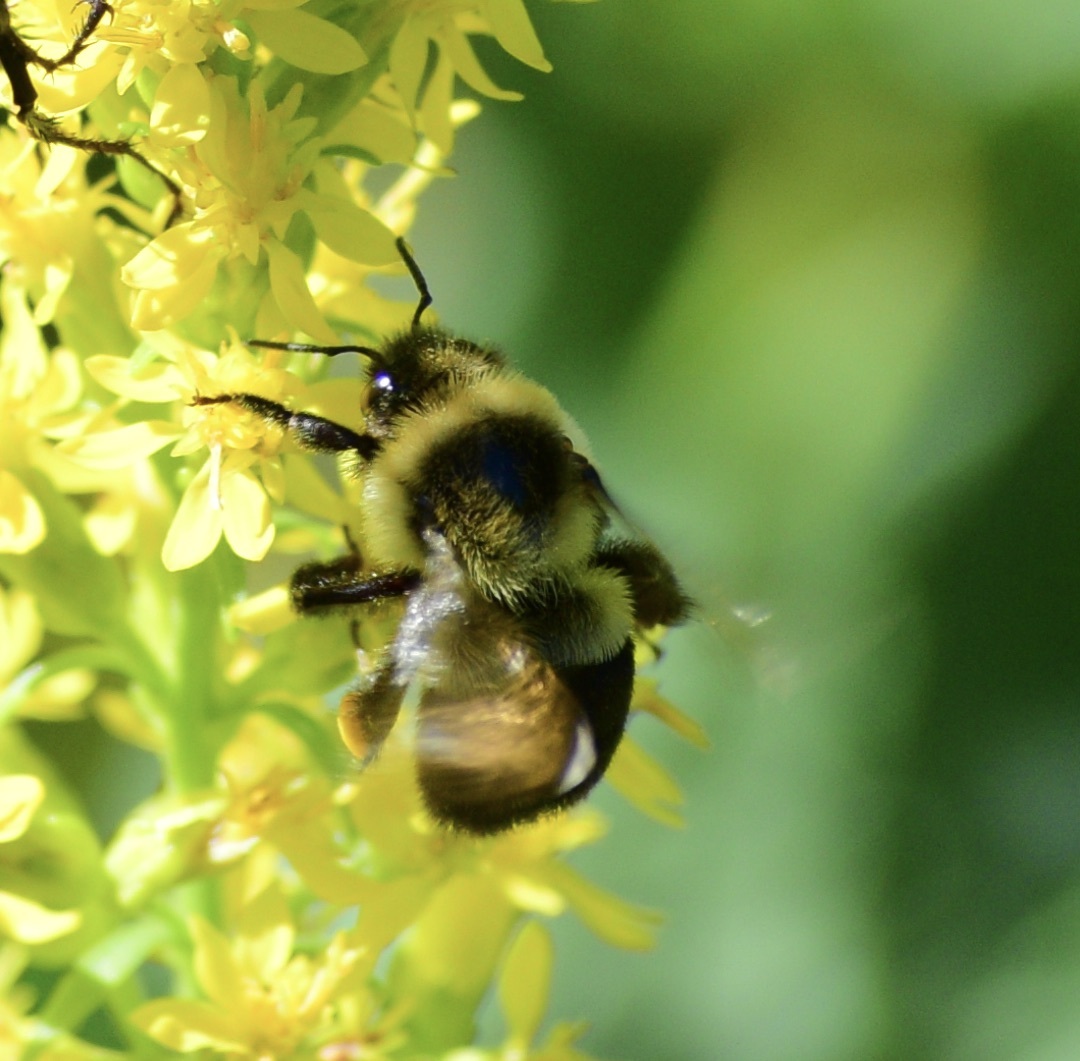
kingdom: Animalia
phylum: Arthropoda
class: Insecta
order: Hymenoptera
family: Apidae
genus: Bombus
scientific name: Bombus impatiens
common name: Common eastern bumble bee
